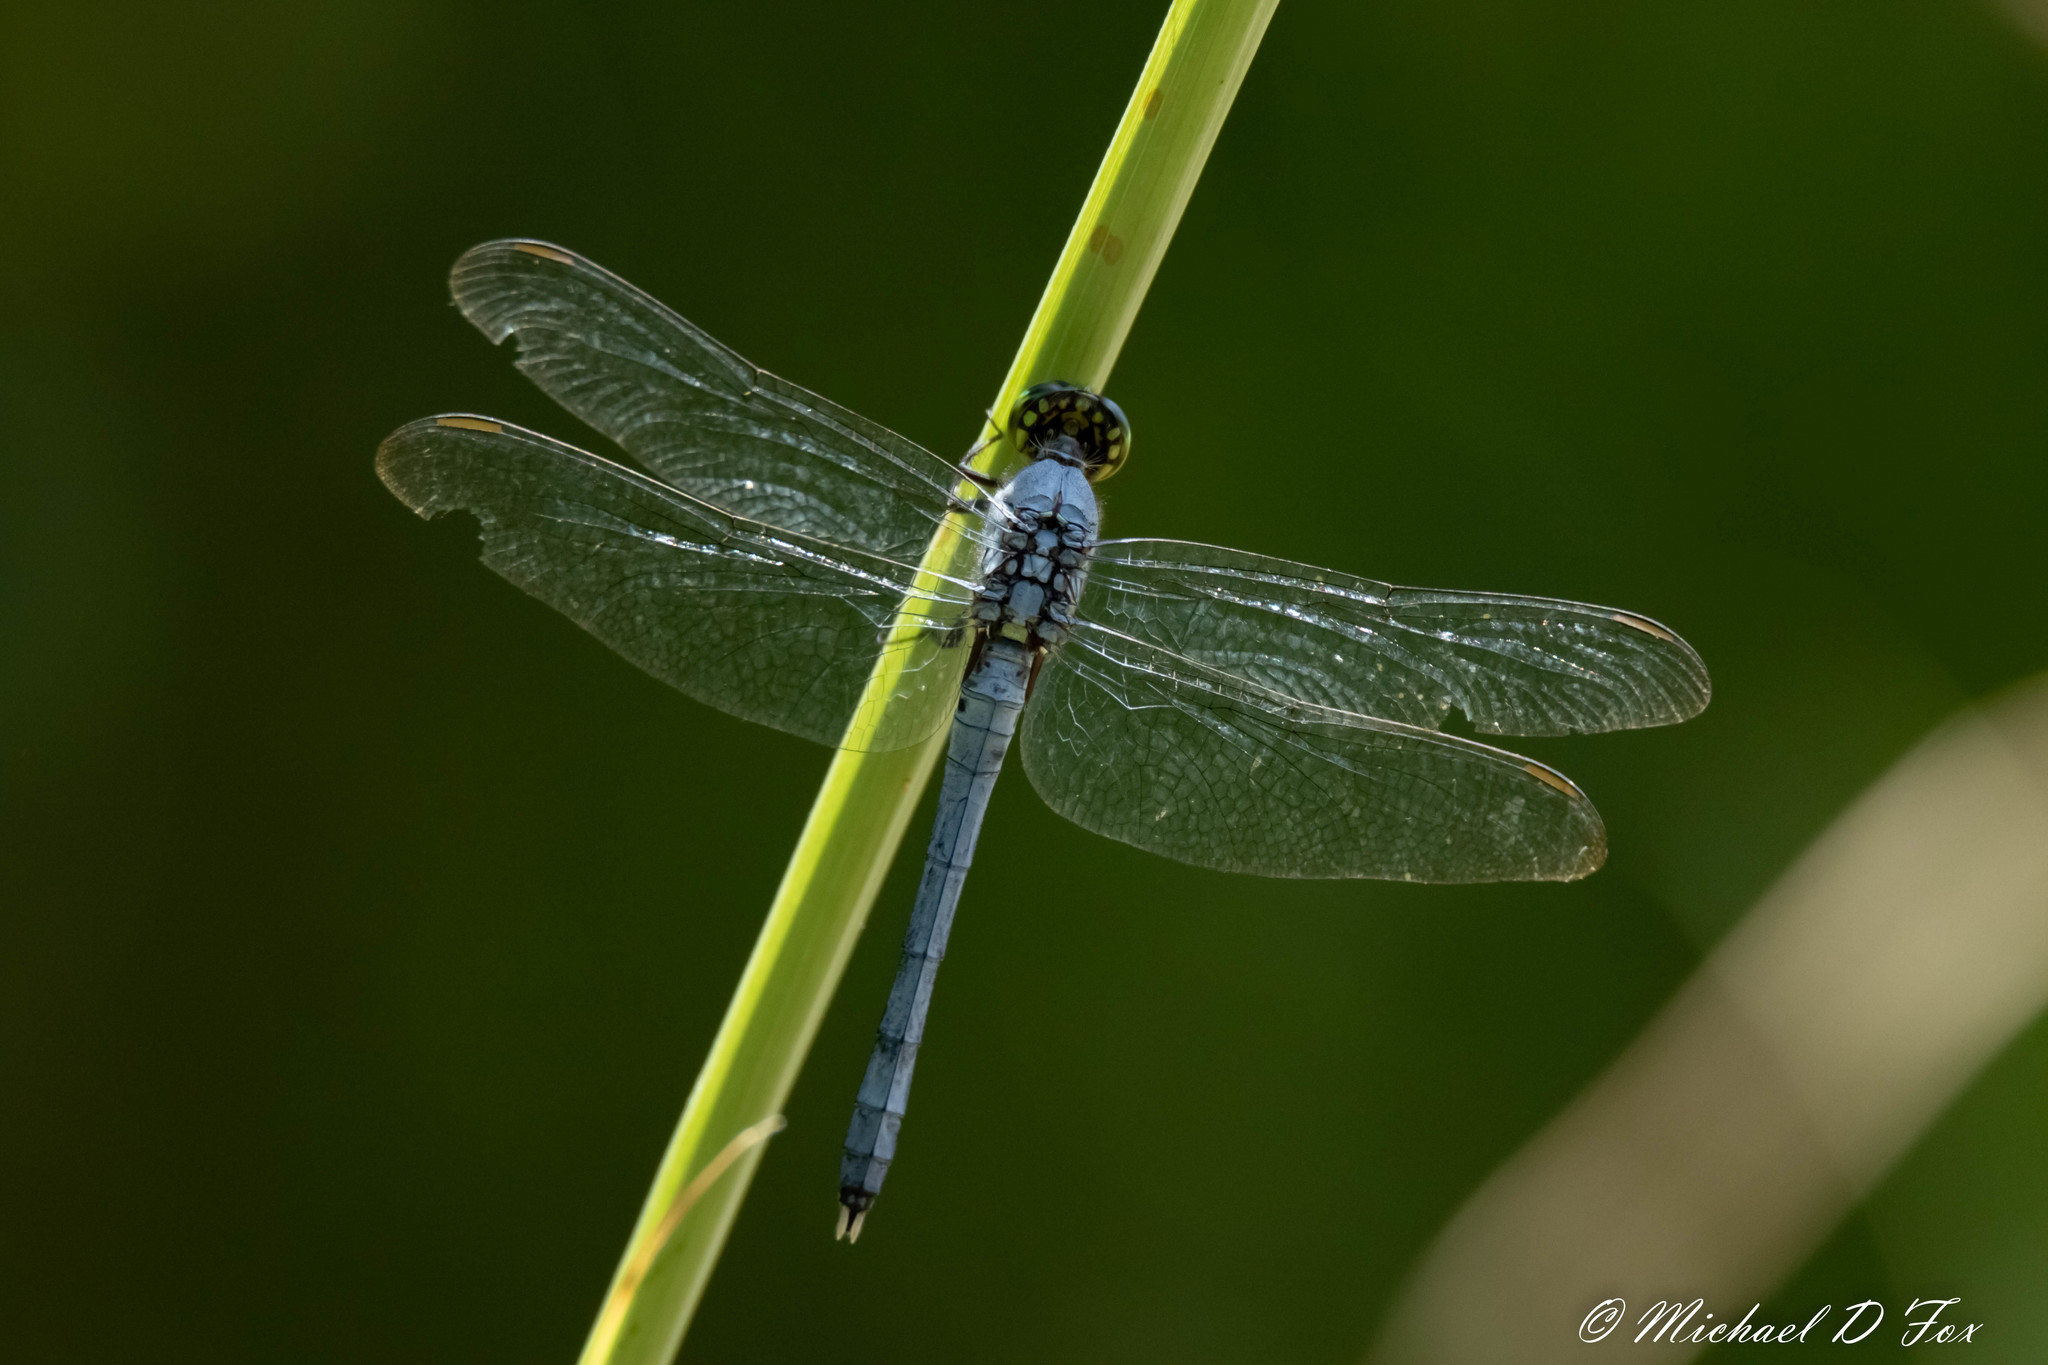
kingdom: Animalia
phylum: Arthropoda
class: Insecta
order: Odonata
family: Libellulidae
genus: Erythemis
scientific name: Erythemis simplicicollis
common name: Eastern pondhawk
